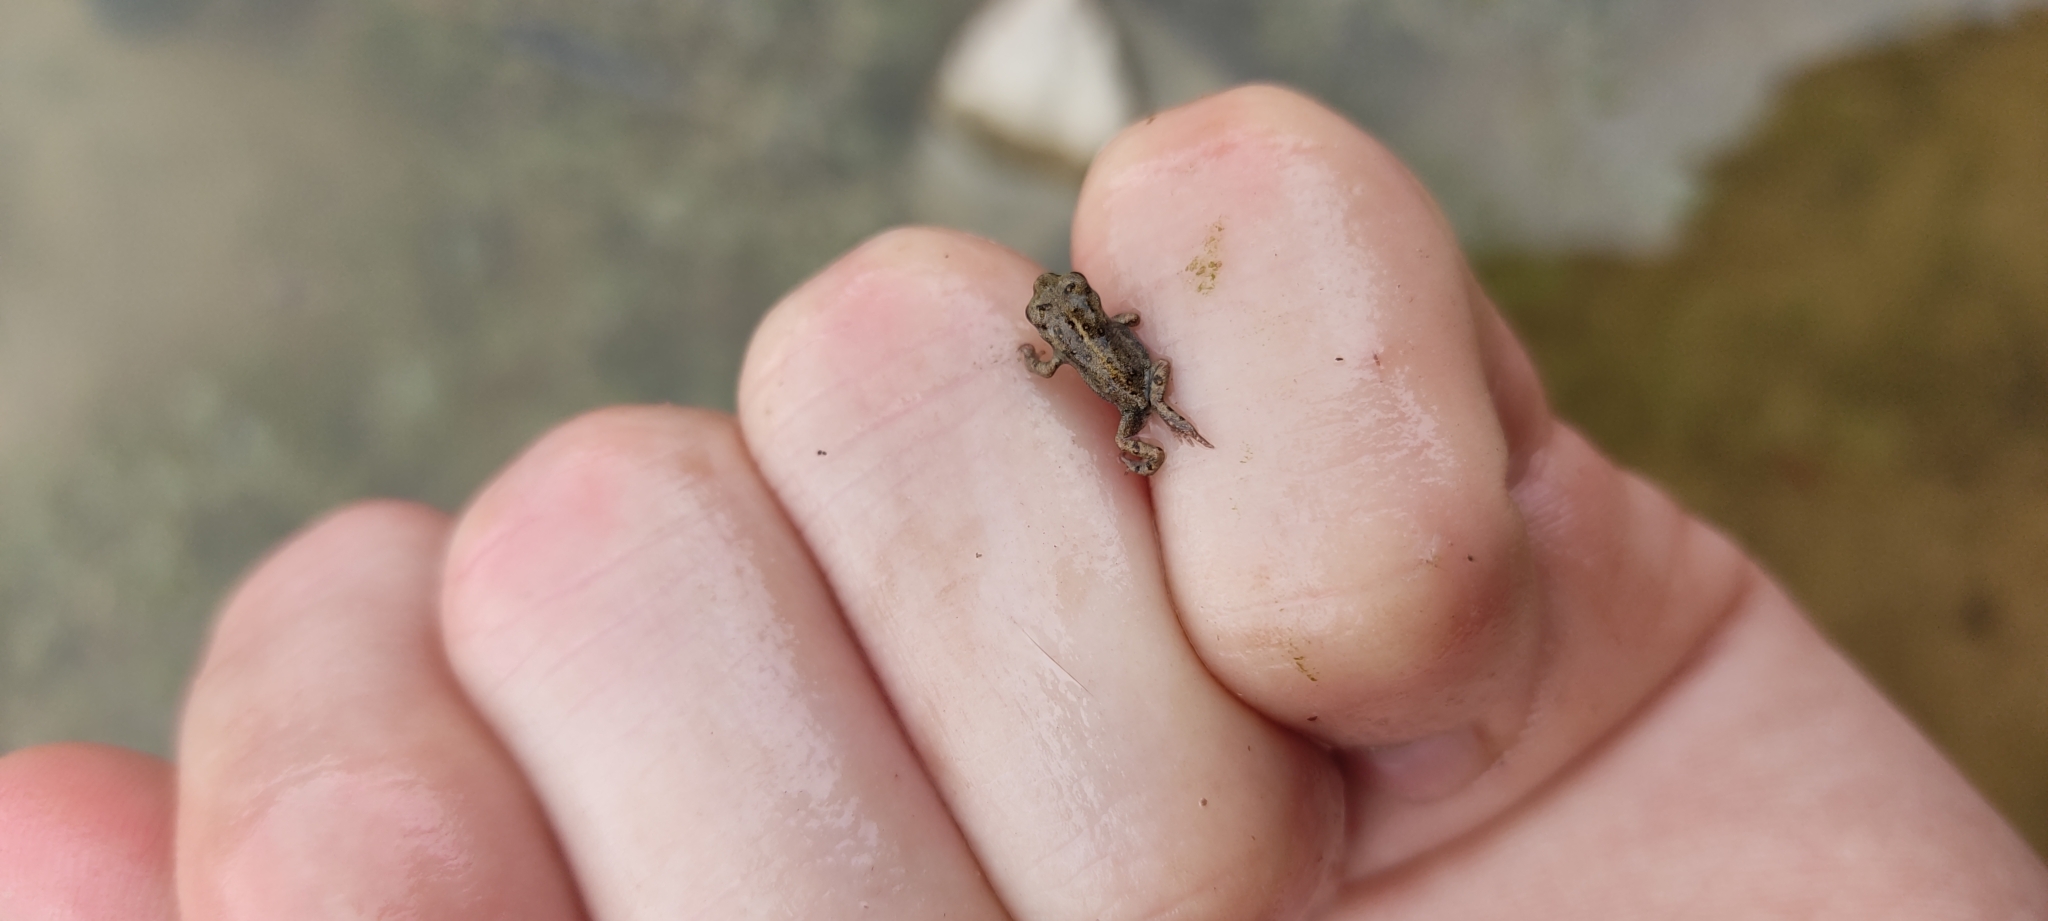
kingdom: Animalia
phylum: Chordata
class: Amphibia
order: Anura
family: Bufonidae
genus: Epidalea
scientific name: Epidalea calamita
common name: Natterjack toad
